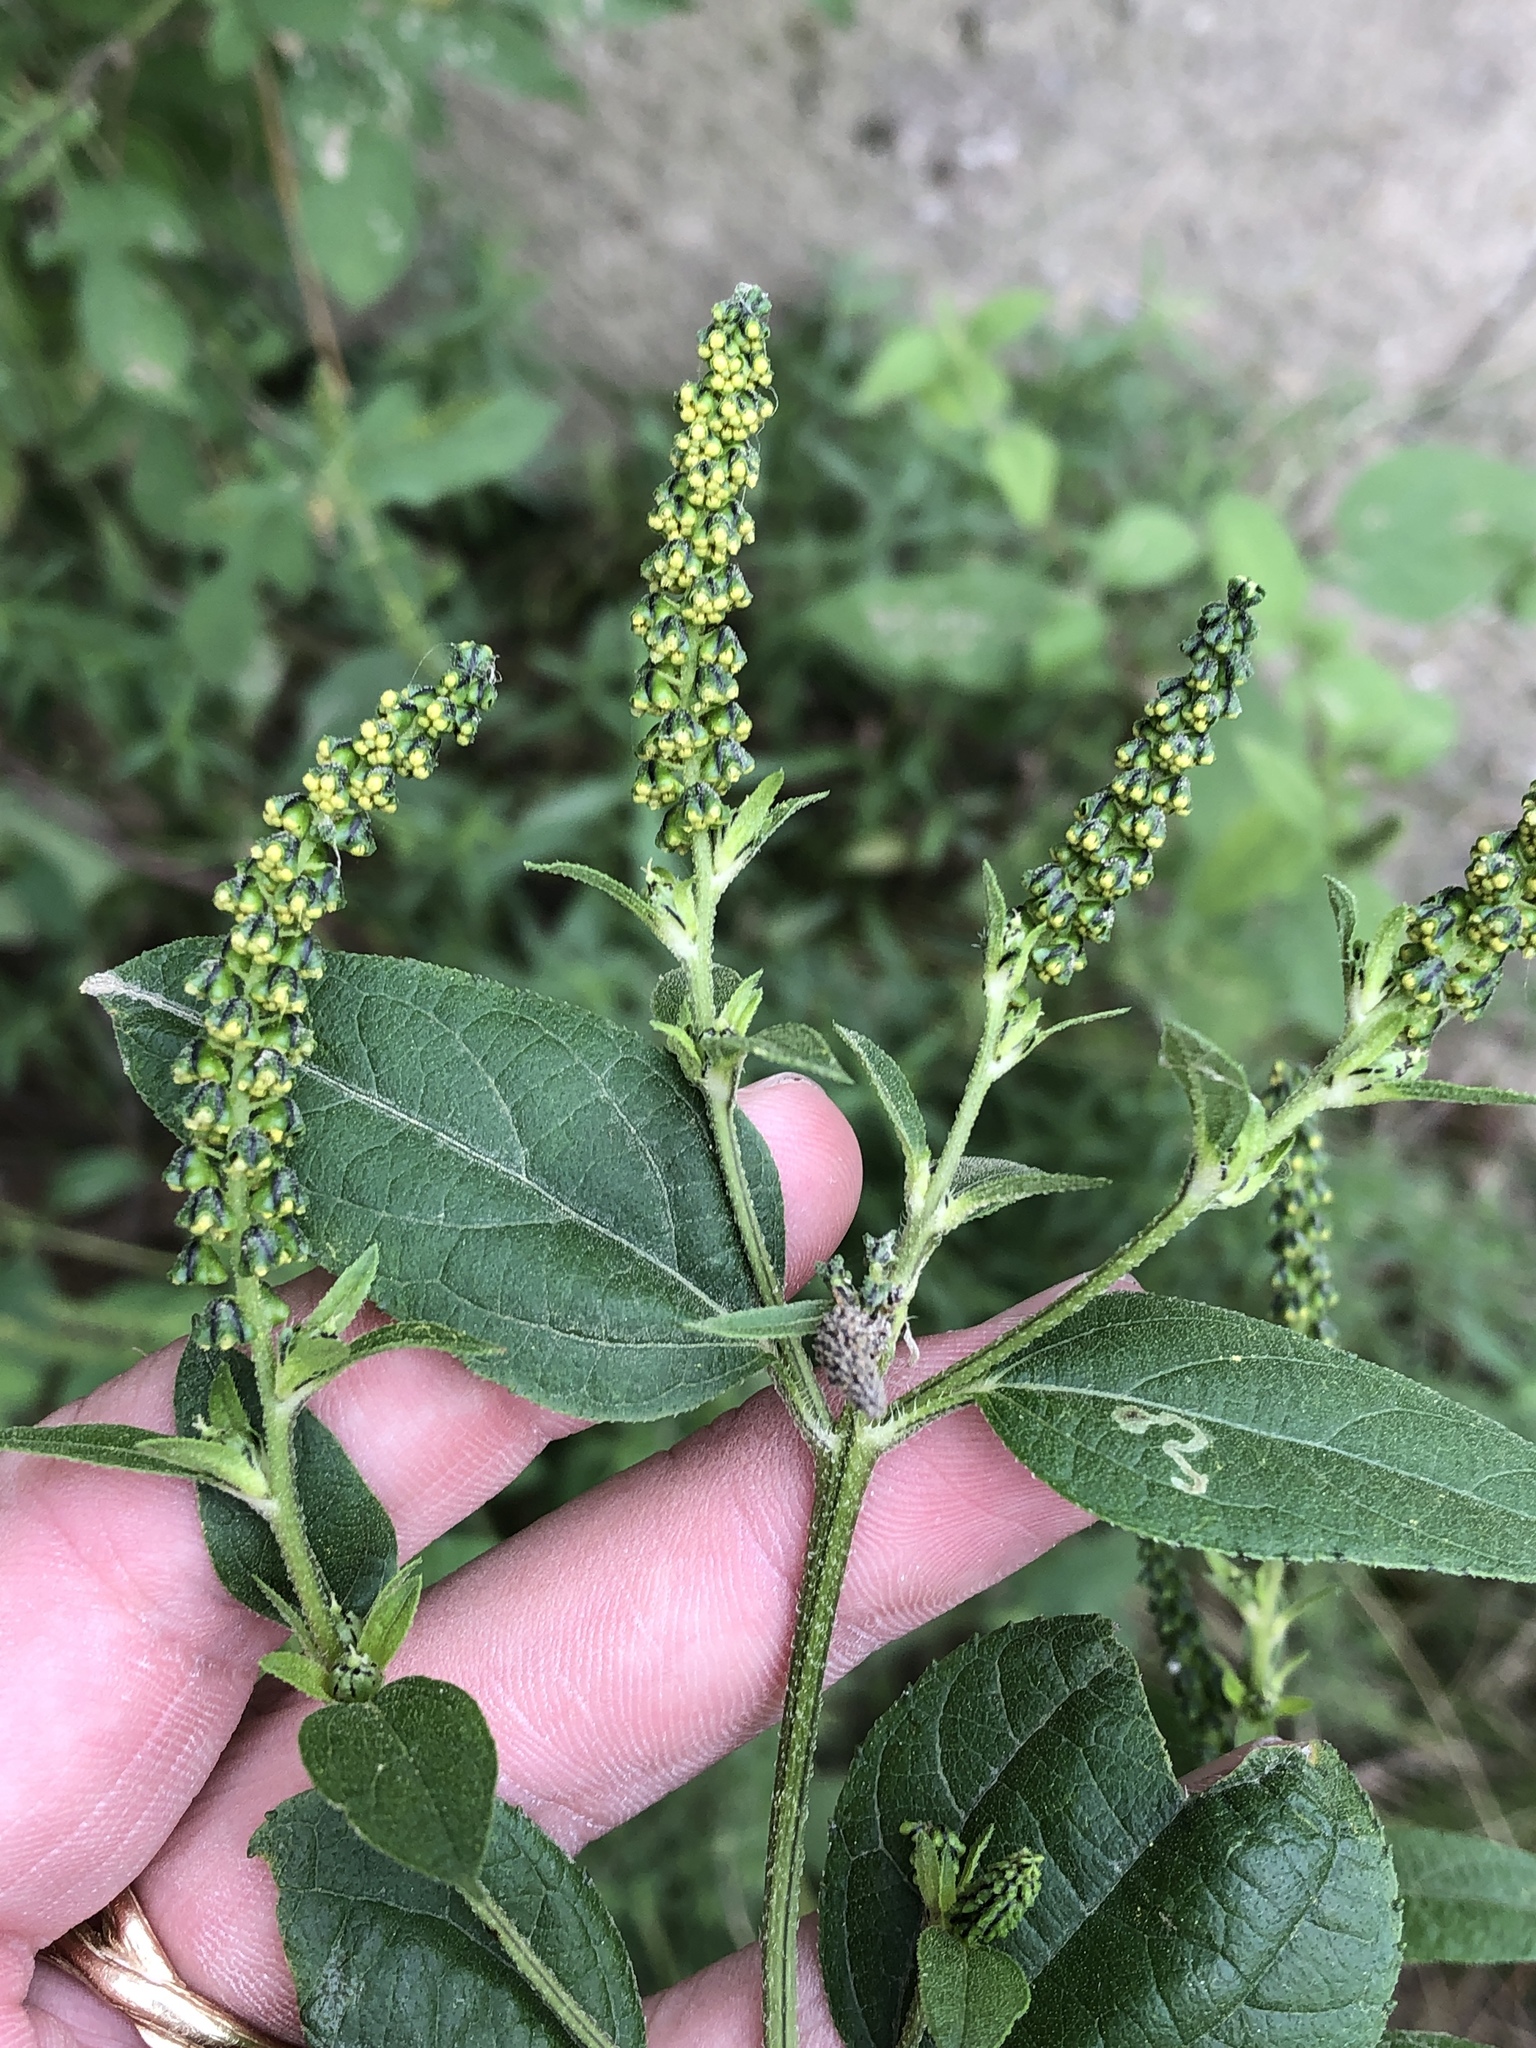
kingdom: Plantae
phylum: Tracheophyta
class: Magnoliopsida
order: Asterales
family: Asteraceae
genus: Ambrosia
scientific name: Ambrosia trifida
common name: Giant ragweed
